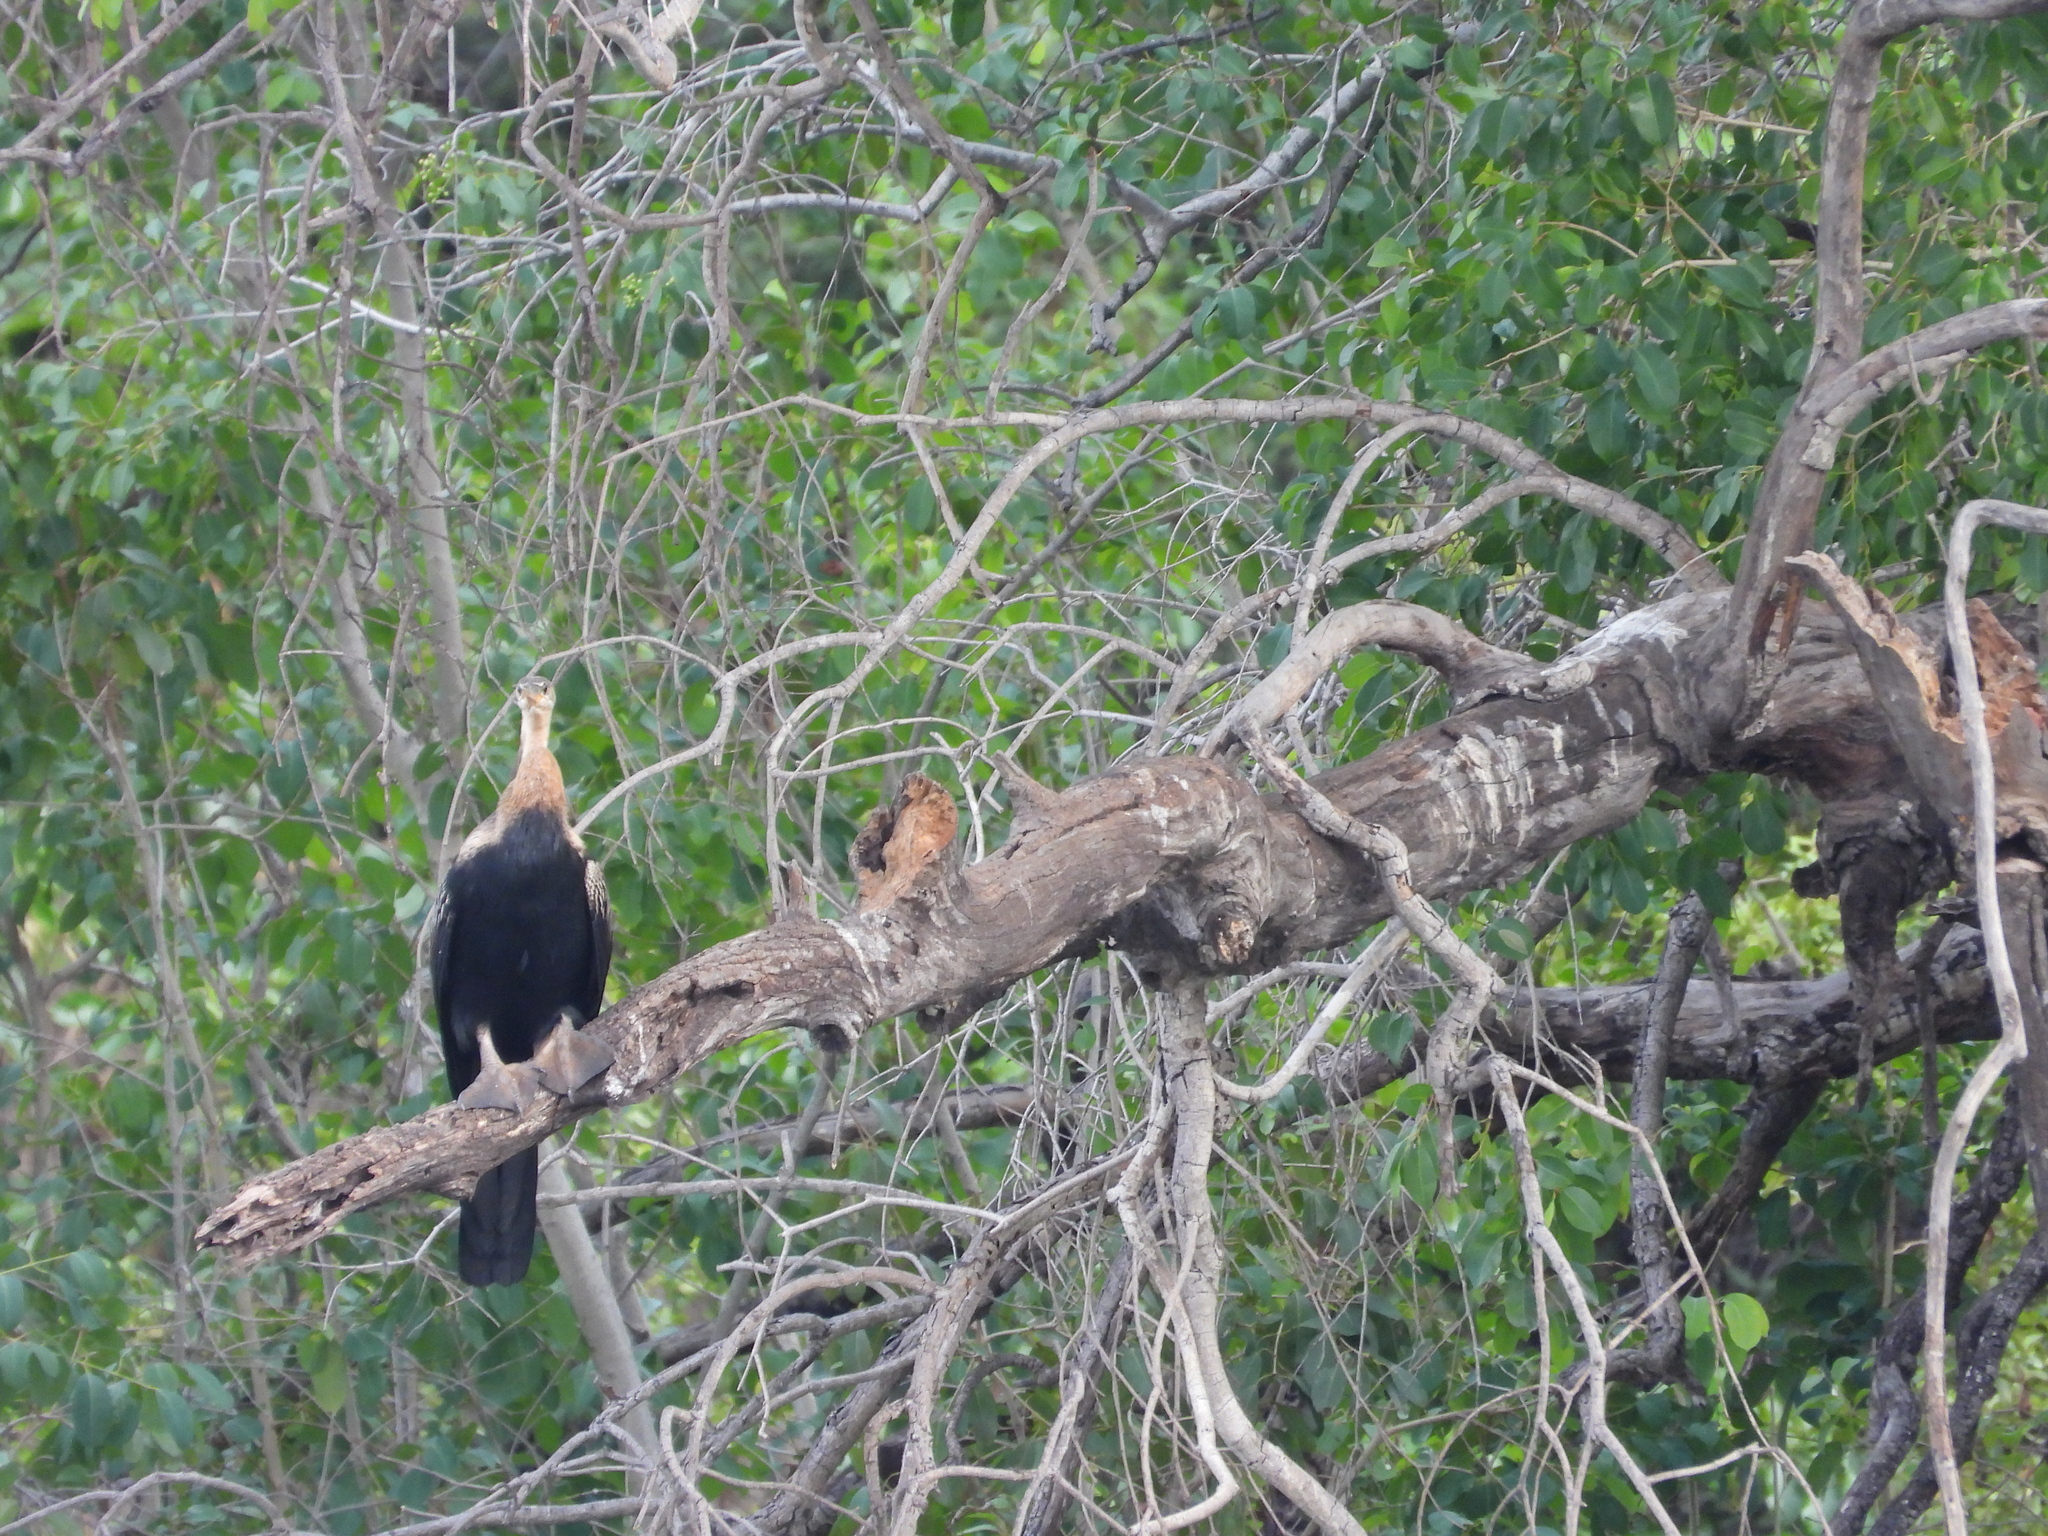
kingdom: Animalia
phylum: Chordata
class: Aves
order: Suliformes
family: Anhingidae
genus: Anhinga
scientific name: Anhinga rufa
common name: African darter
